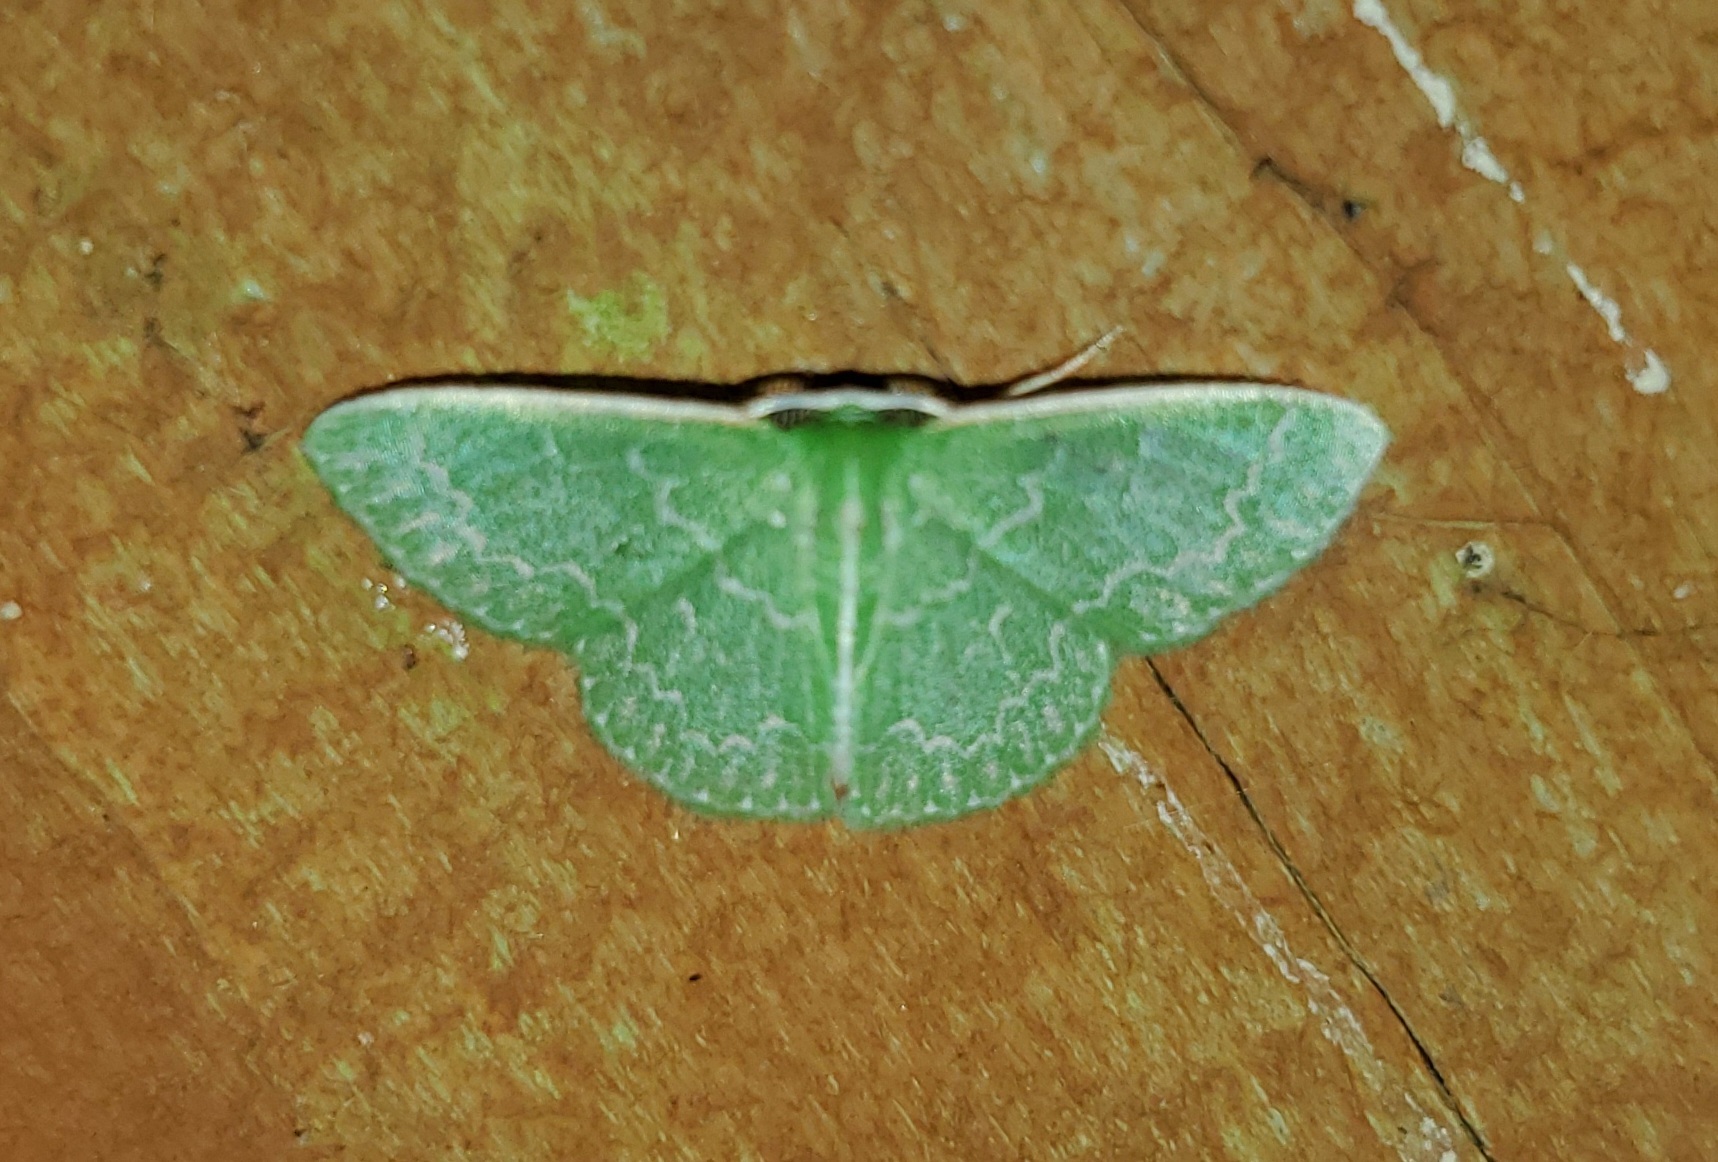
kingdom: Animalia
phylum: Arthropoda
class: Insecta
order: Lepidoptera
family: Geometridae
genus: Synchlora
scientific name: Synchlora frondaria
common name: Southern emerald
